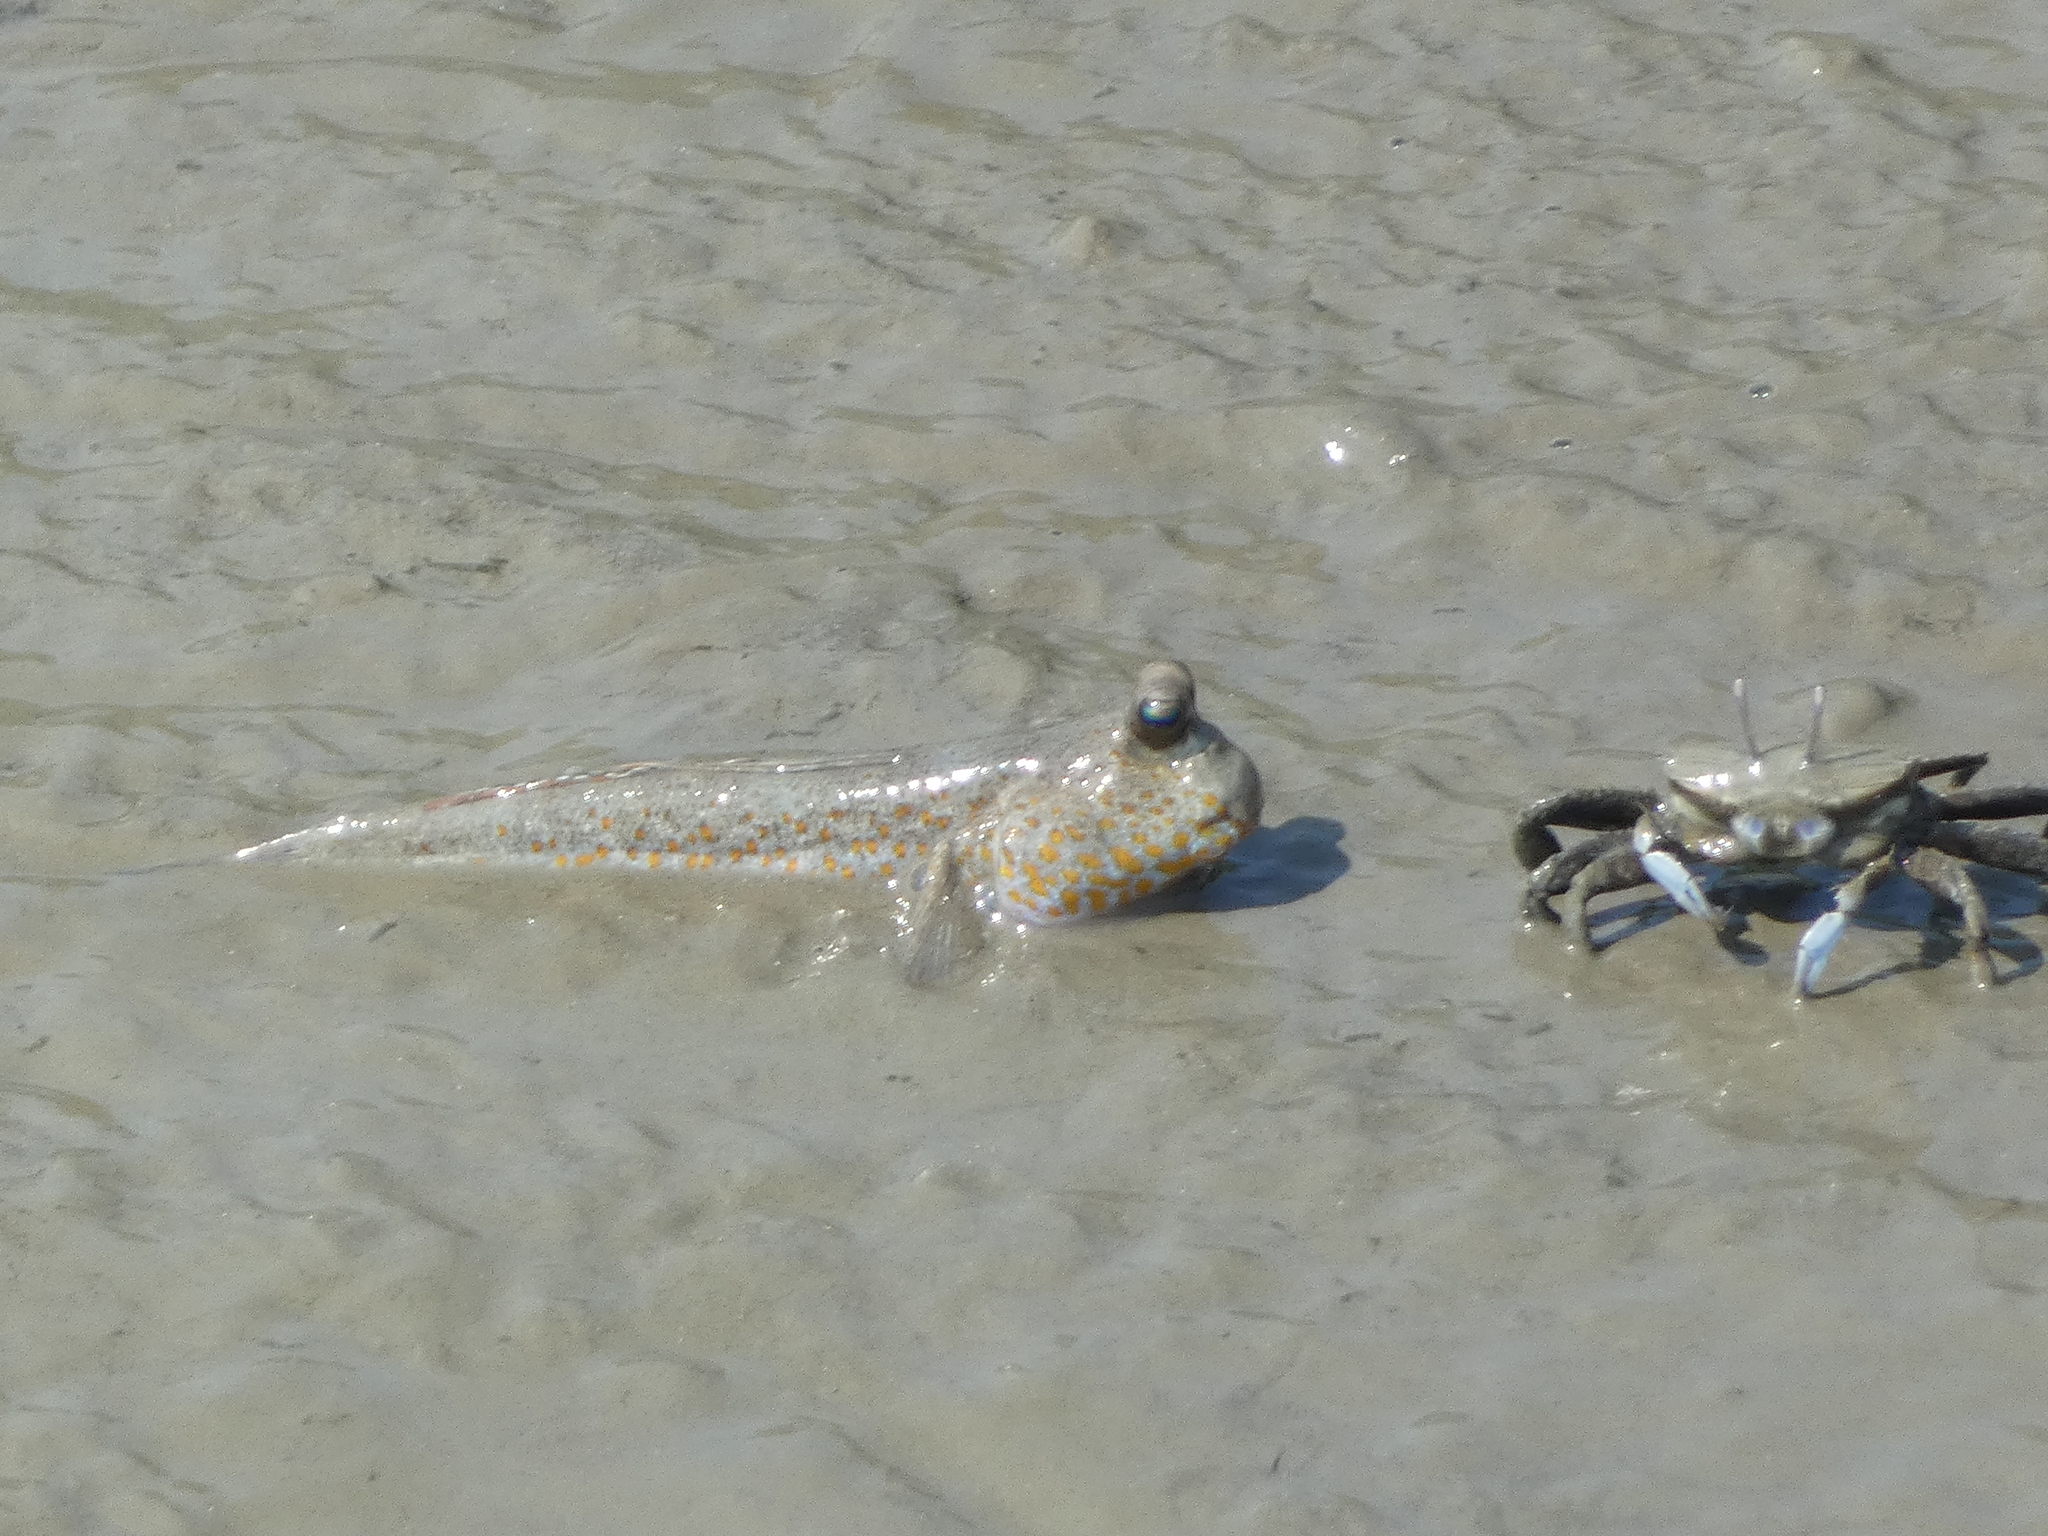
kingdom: Animalia
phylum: Chordata
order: Perciformes
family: Gobiidae
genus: Periophthalmus
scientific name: Periophthalmus chrysospilos
